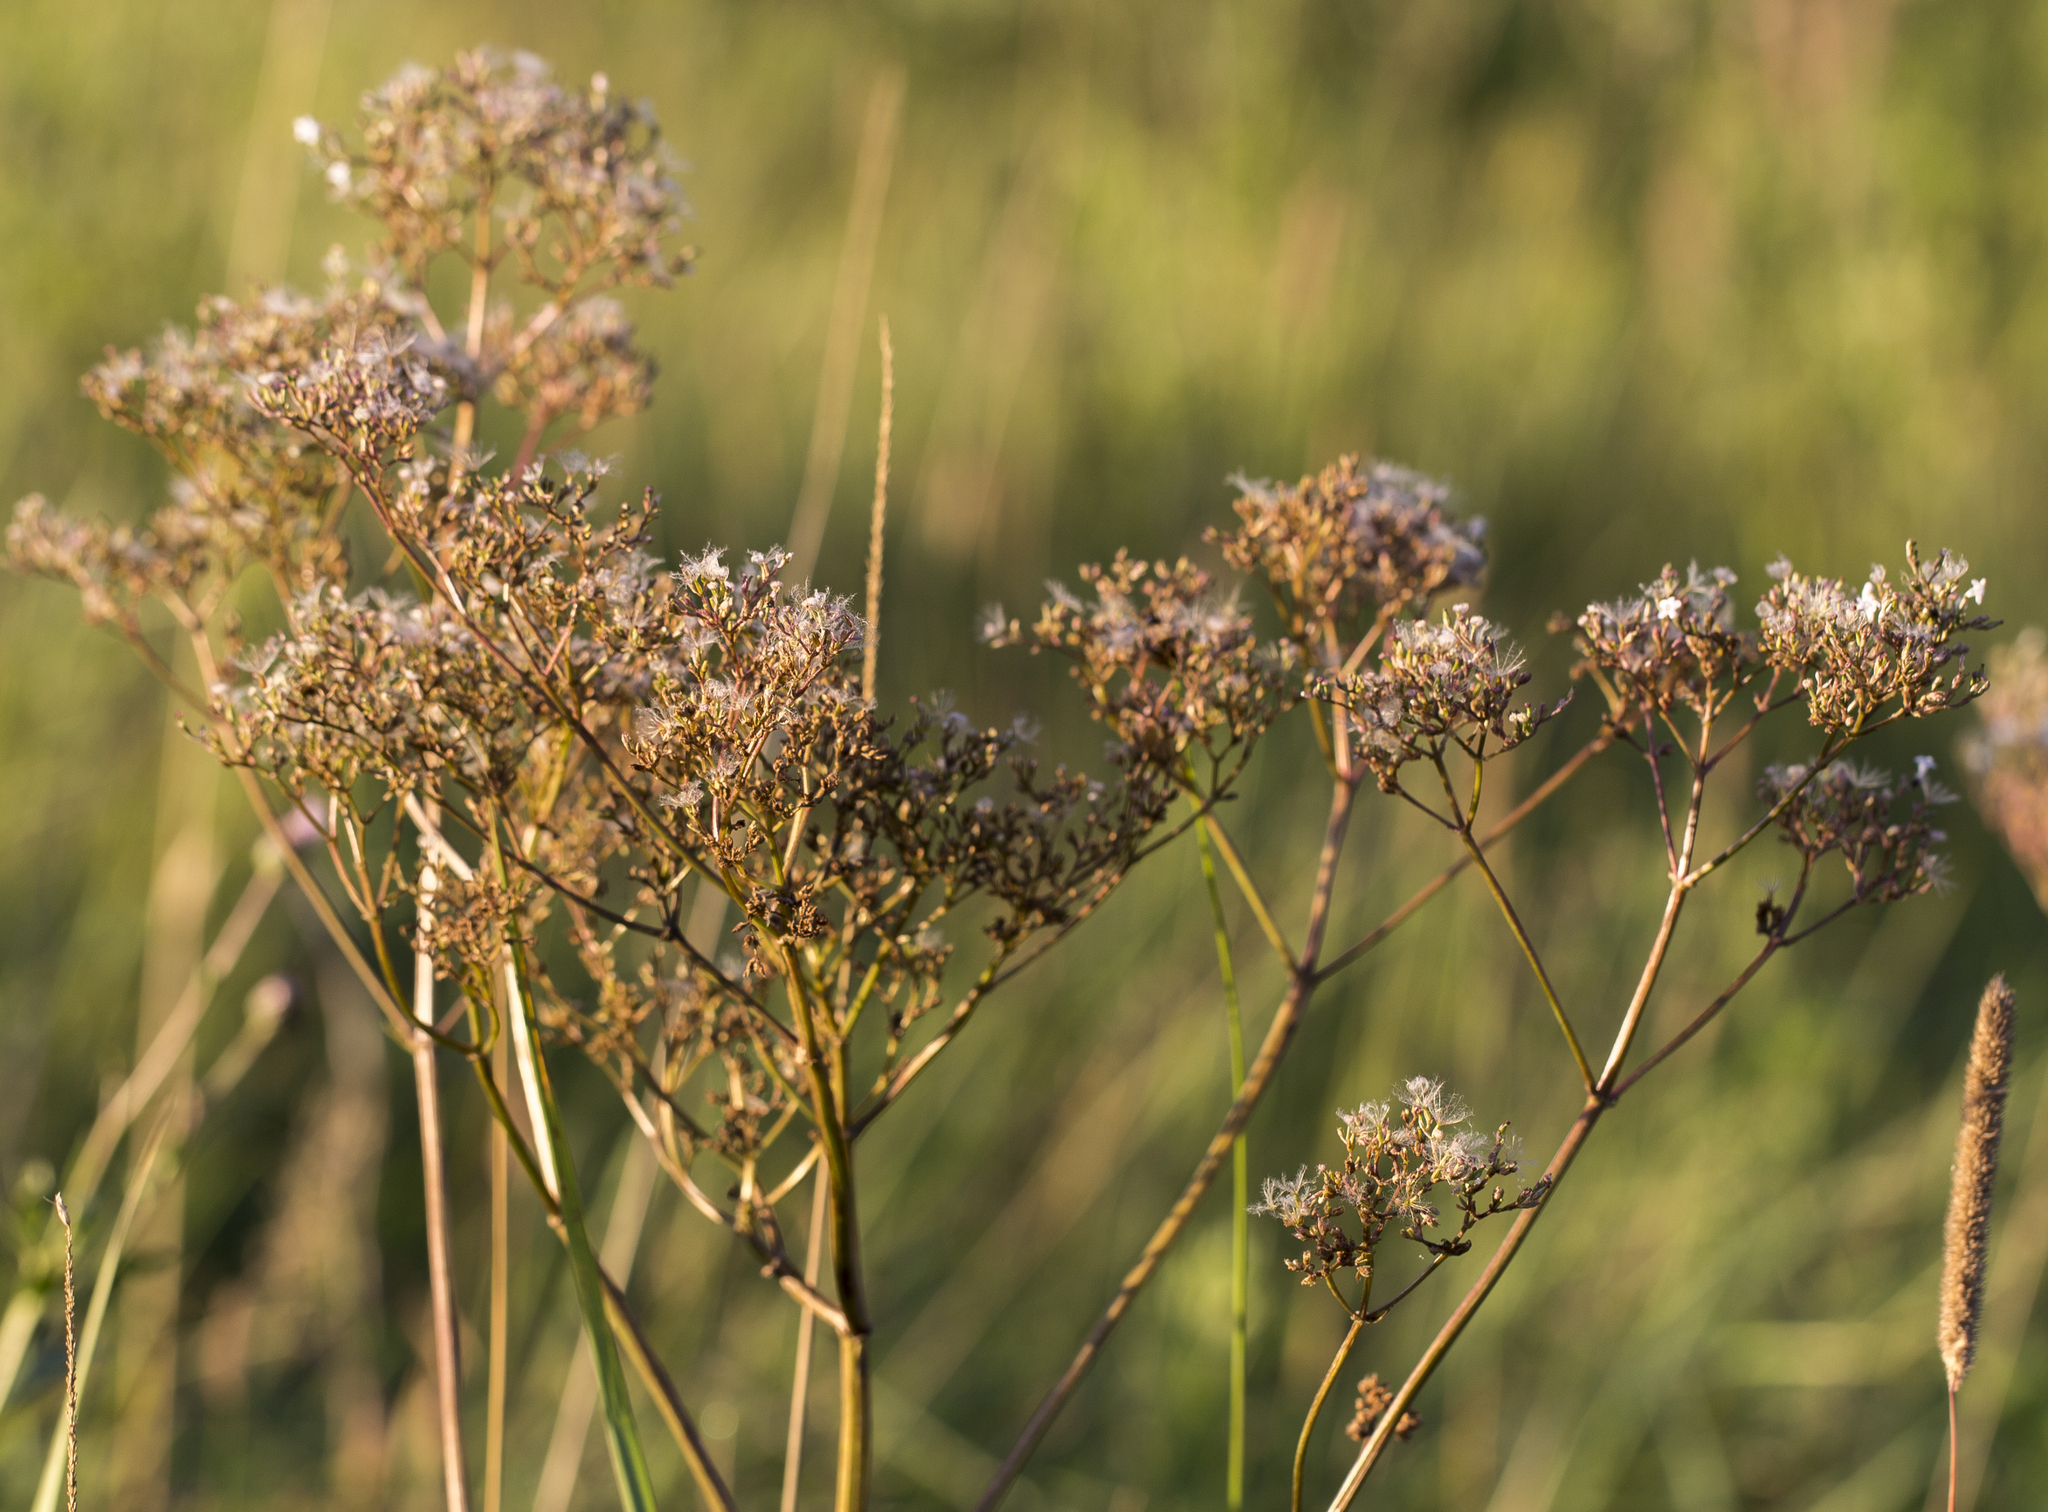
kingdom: Plantae
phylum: Tracheophyta
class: Magnoliopsida
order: Dipsacales
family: Caprifoliaceae
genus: Valeriana
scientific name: Valeriana officinalis
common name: Common valerian
